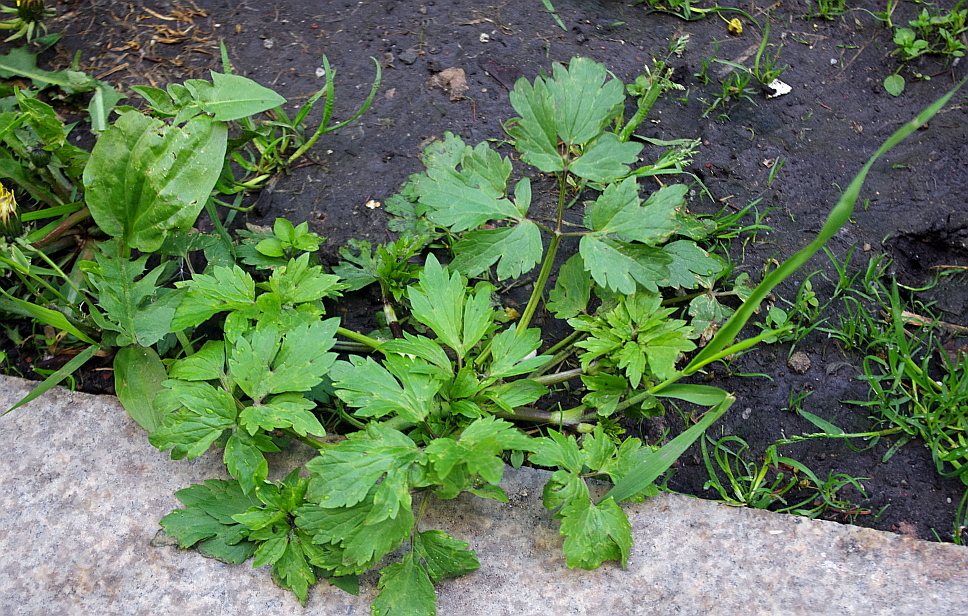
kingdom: Plantae
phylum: Tracheophyta
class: Magnoliopsida
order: Ranunculales
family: Ranunculaceae
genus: Ranunculus
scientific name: Ranunculus repens
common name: Creeping buttercup
